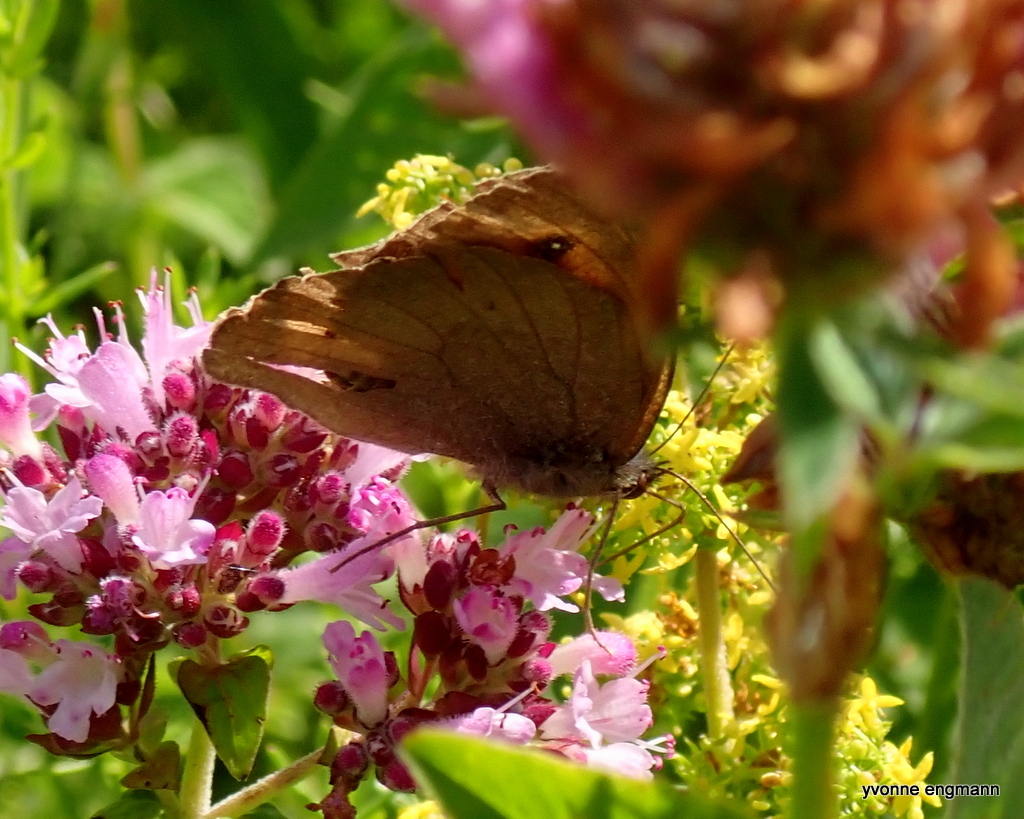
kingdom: Animalia
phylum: Arthropoda
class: Insecta
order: Lepidoptera
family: Nymphalidae
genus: Maniola
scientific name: Maniola jurtina
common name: Meadow brown
